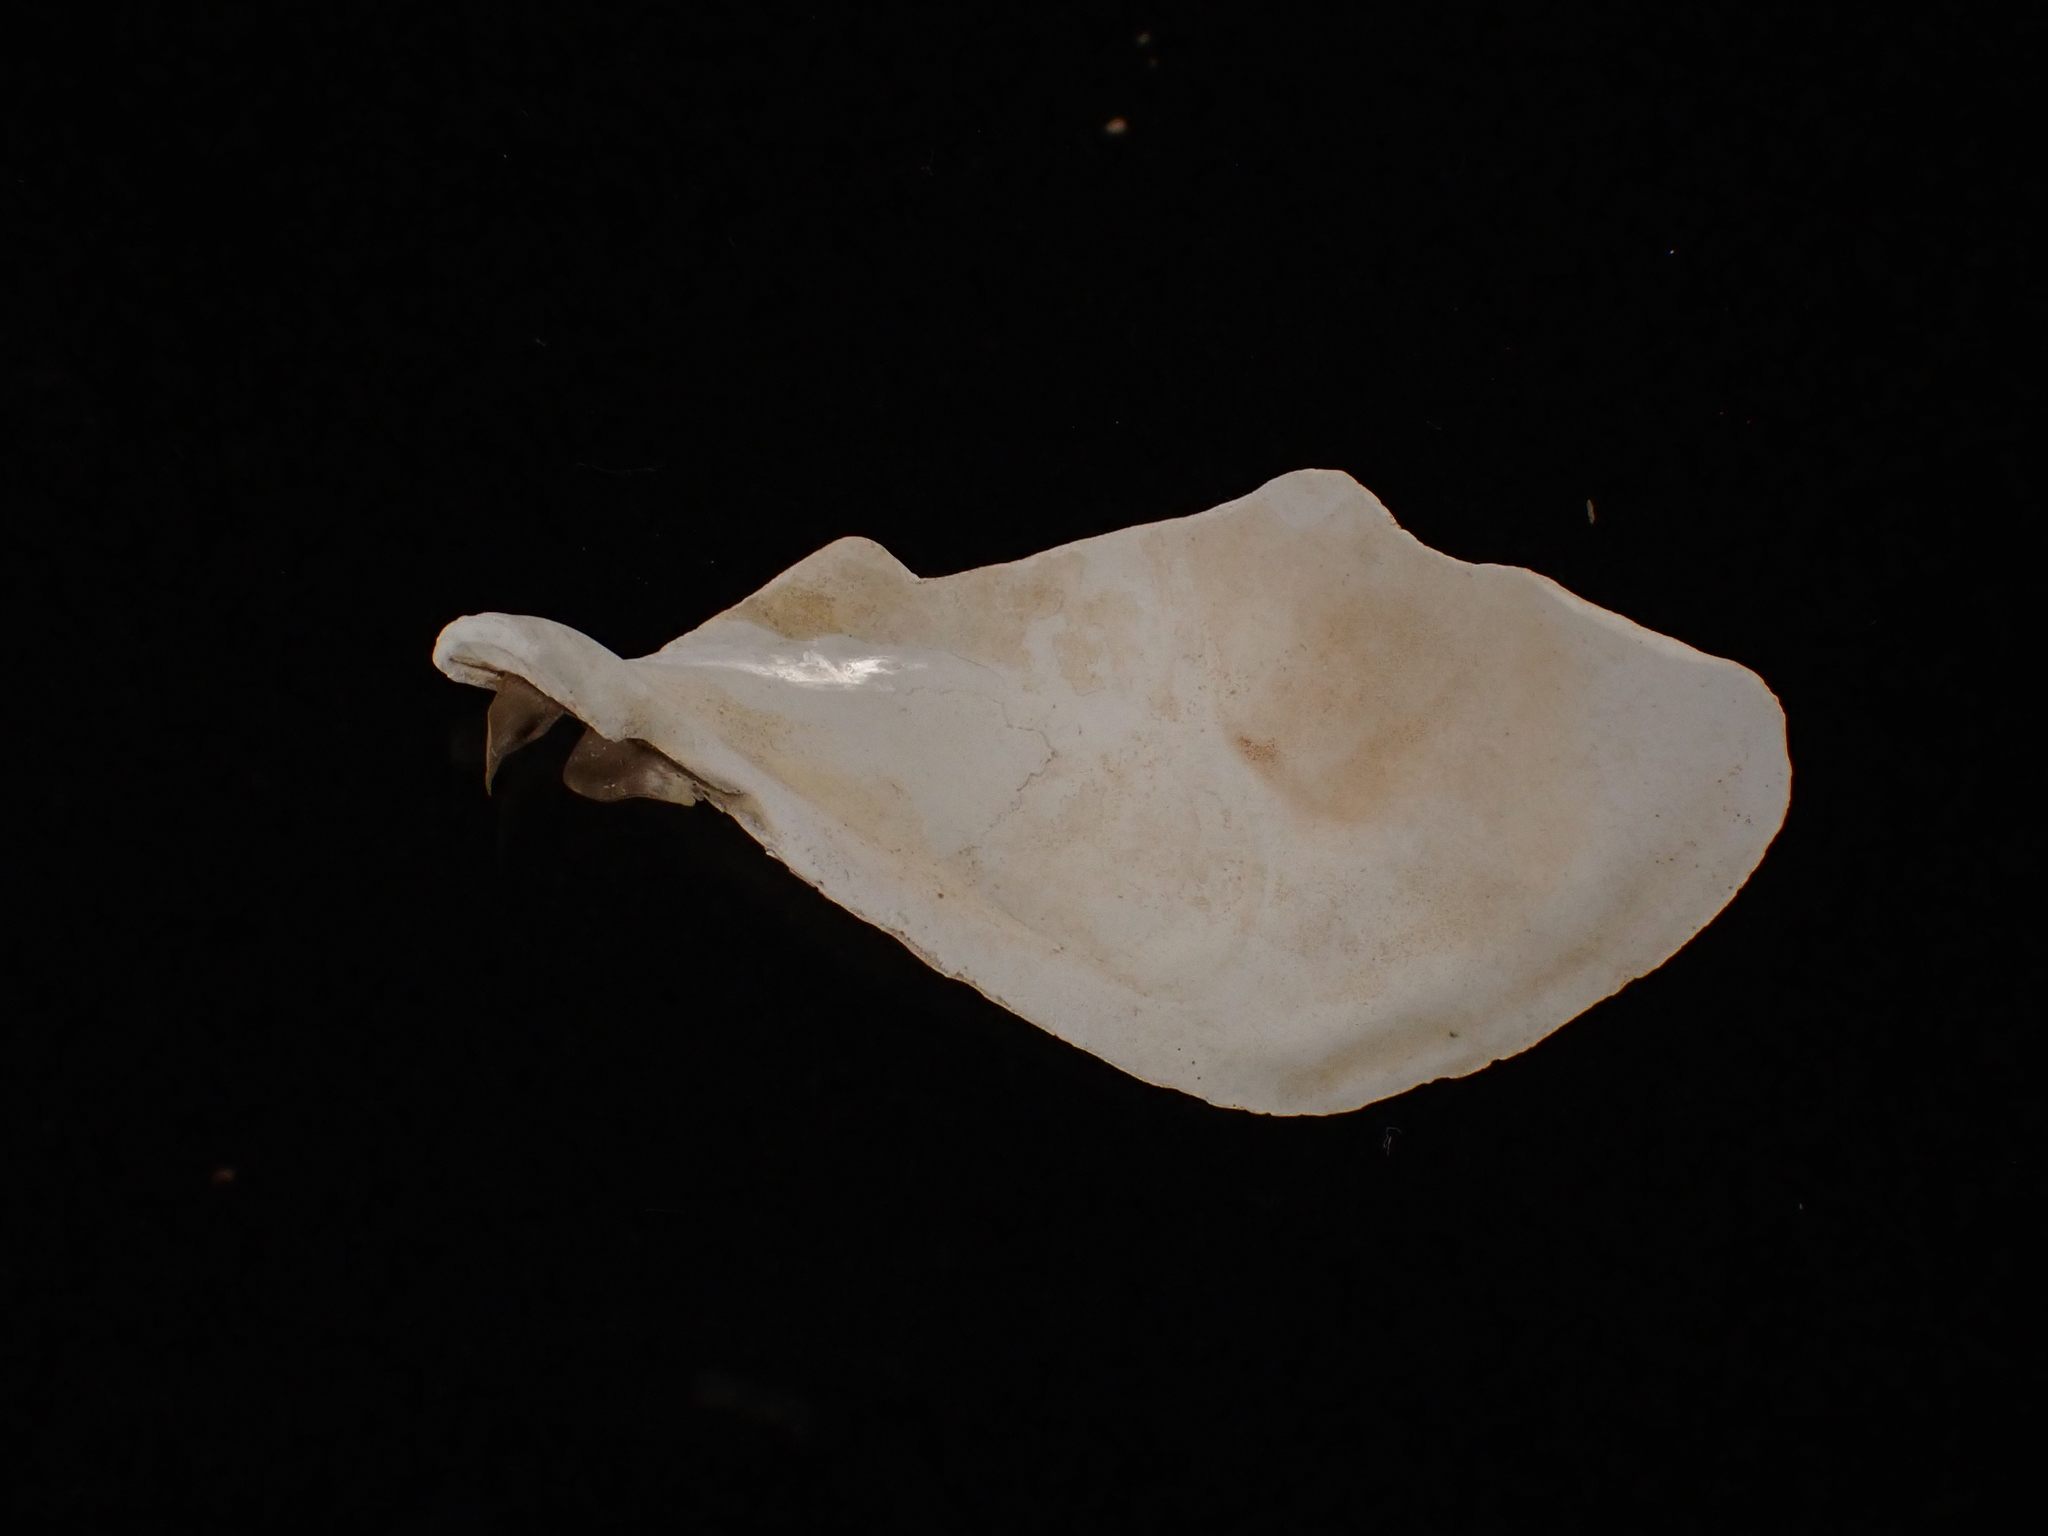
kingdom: Animalia
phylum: Mollusca
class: Bivalvia
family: Thraciidae
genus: Thracia
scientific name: Thracia conradi
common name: Conrad thracia
